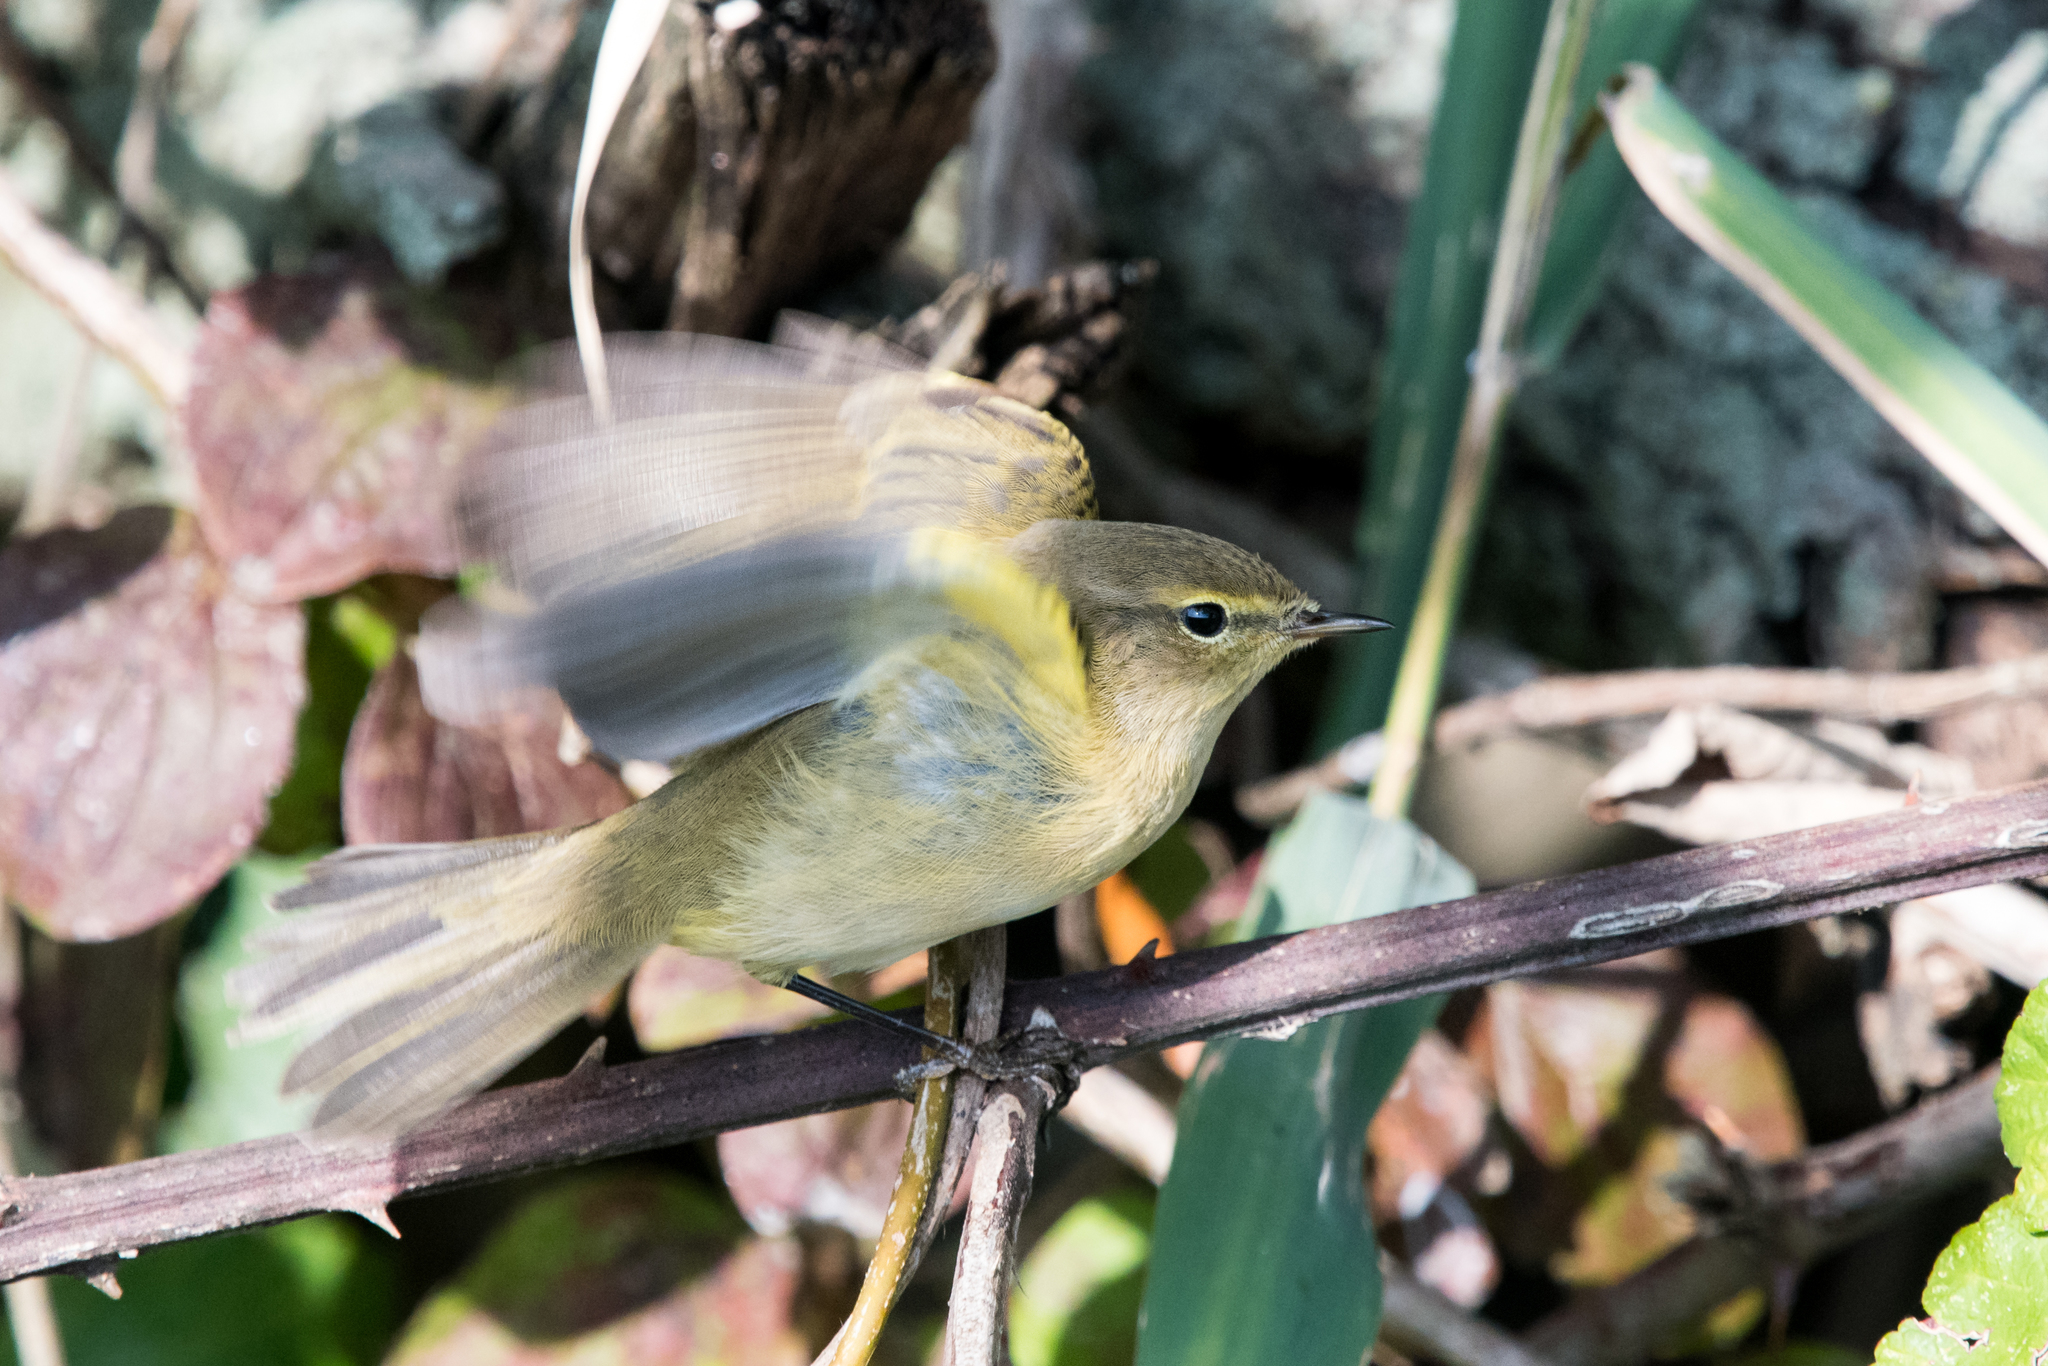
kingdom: Animalia
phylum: Chordata
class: Aves
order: Passeriformes
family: Phylloscopidae
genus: Phylloscopus
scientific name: Phylloscopus collybita
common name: Common chiffchaff
